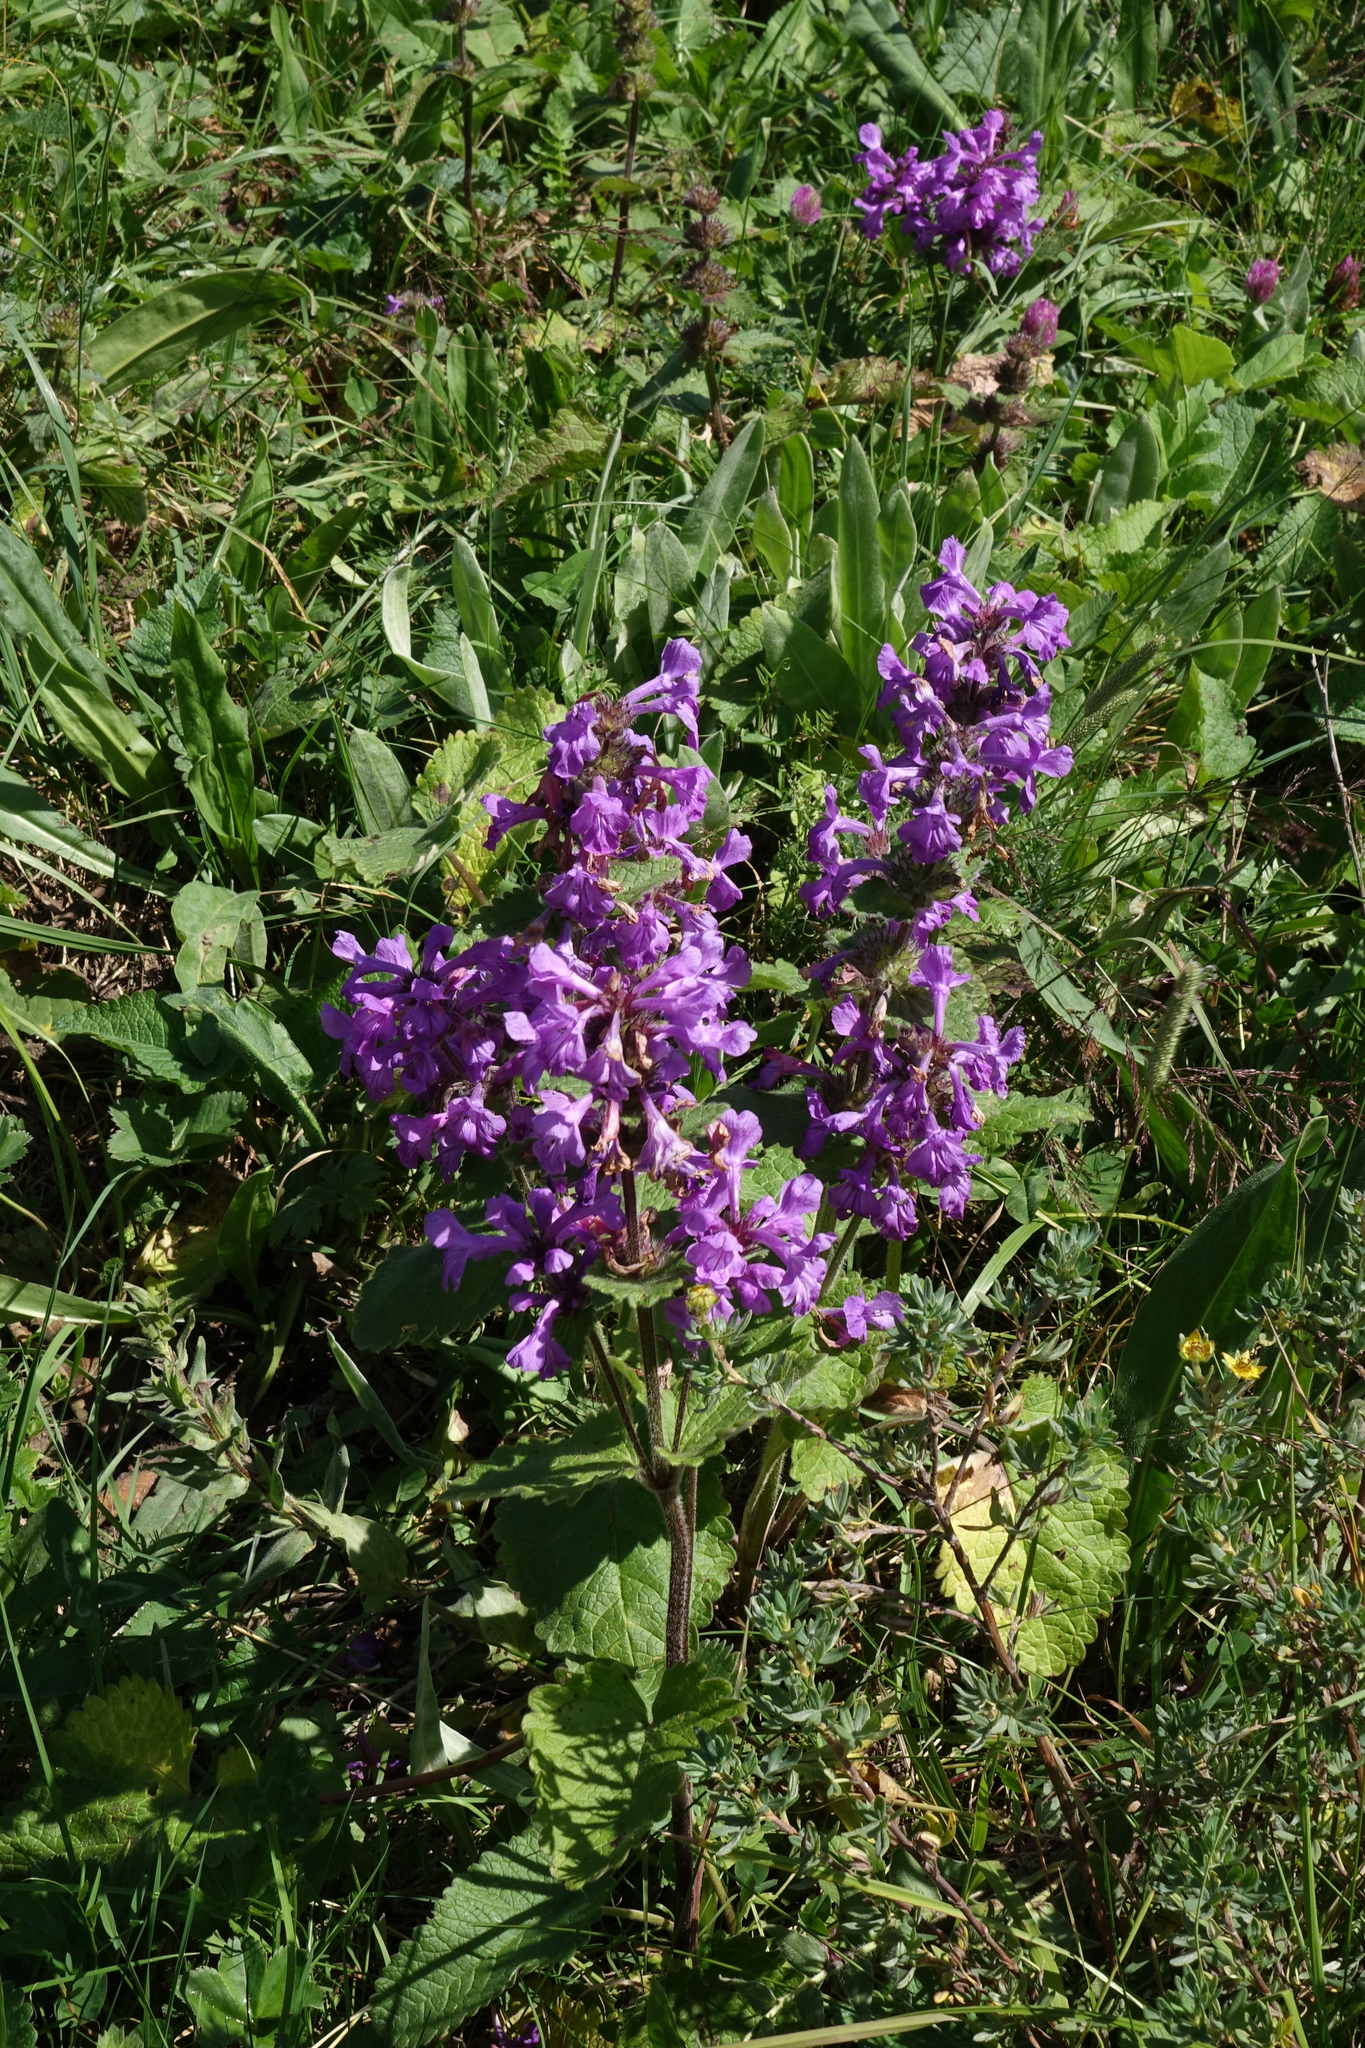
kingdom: Plantae
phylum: Tracheophyta
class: Magnoliopsida
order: Lamiales
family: Lamiaceae
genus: Betonica
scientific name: Betonica macrantha
